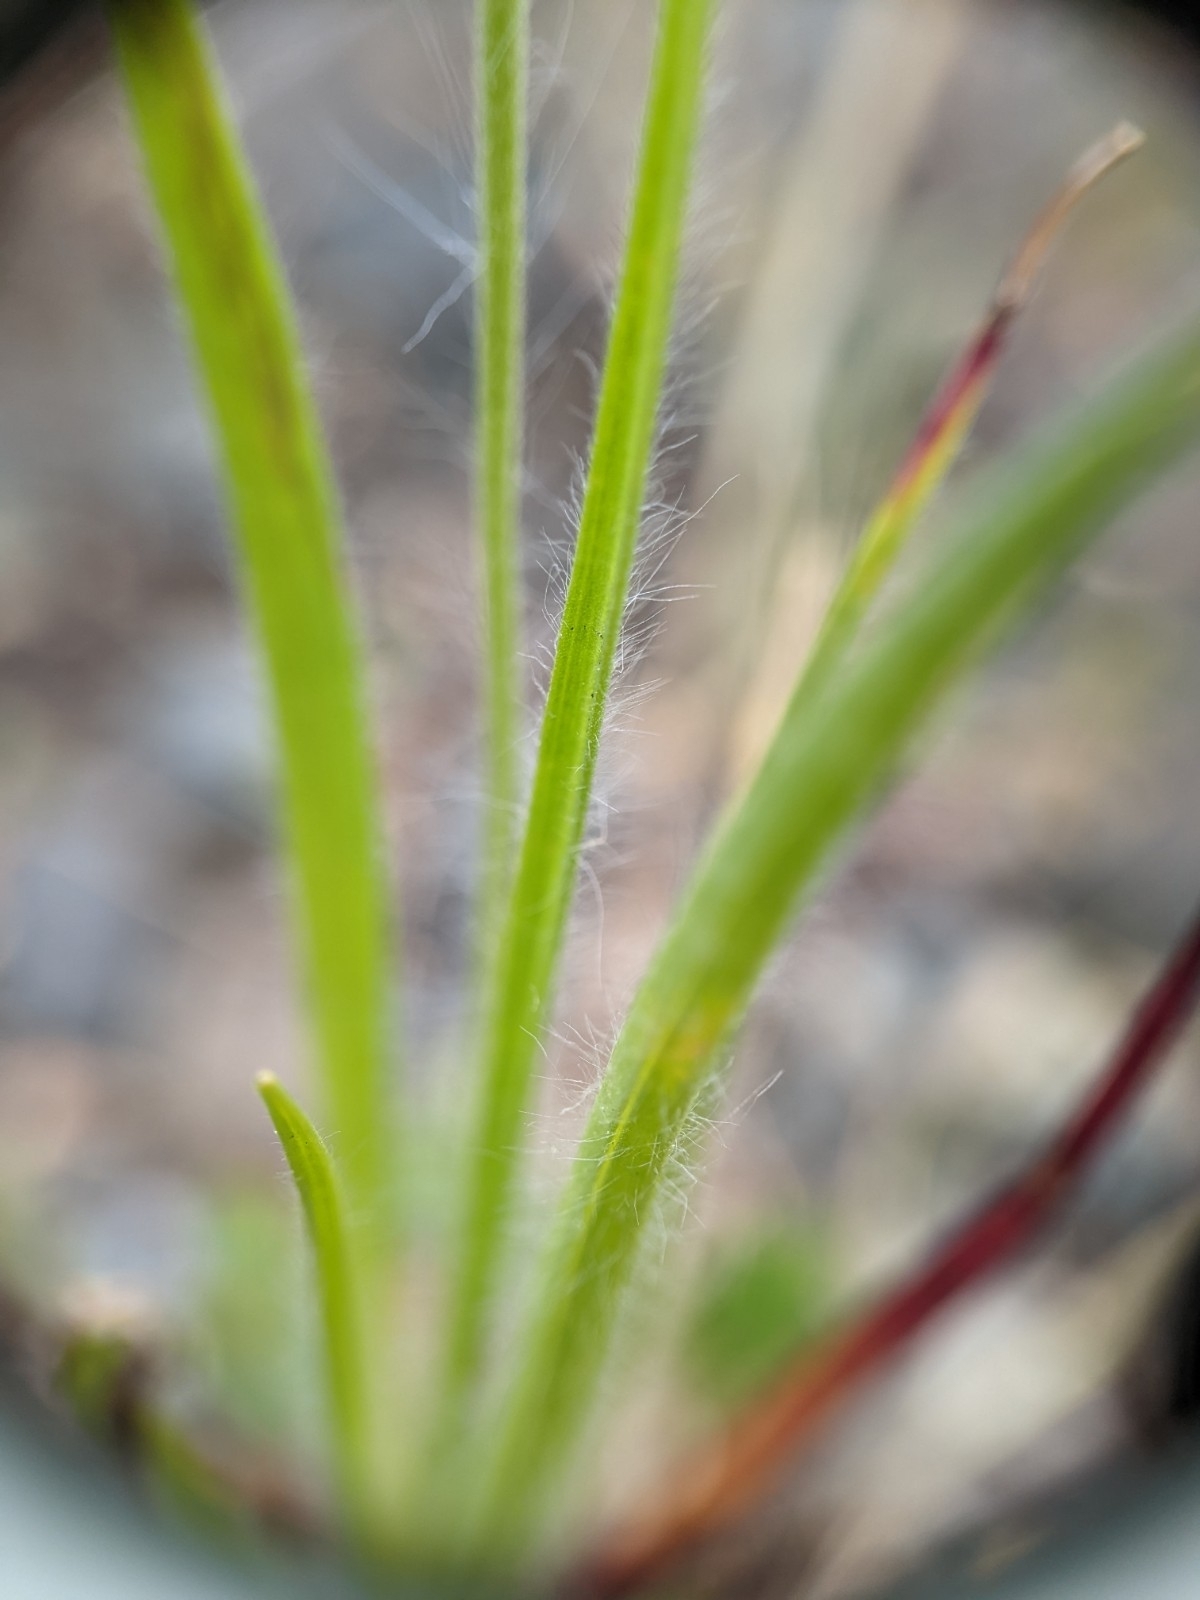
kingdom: Plantae
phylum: Tracheophyta
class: Magnoliopsida
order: Lamiales
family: Plantaginaceae
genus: Plantago
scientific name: Plantago aristata
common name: Bracted plantain
